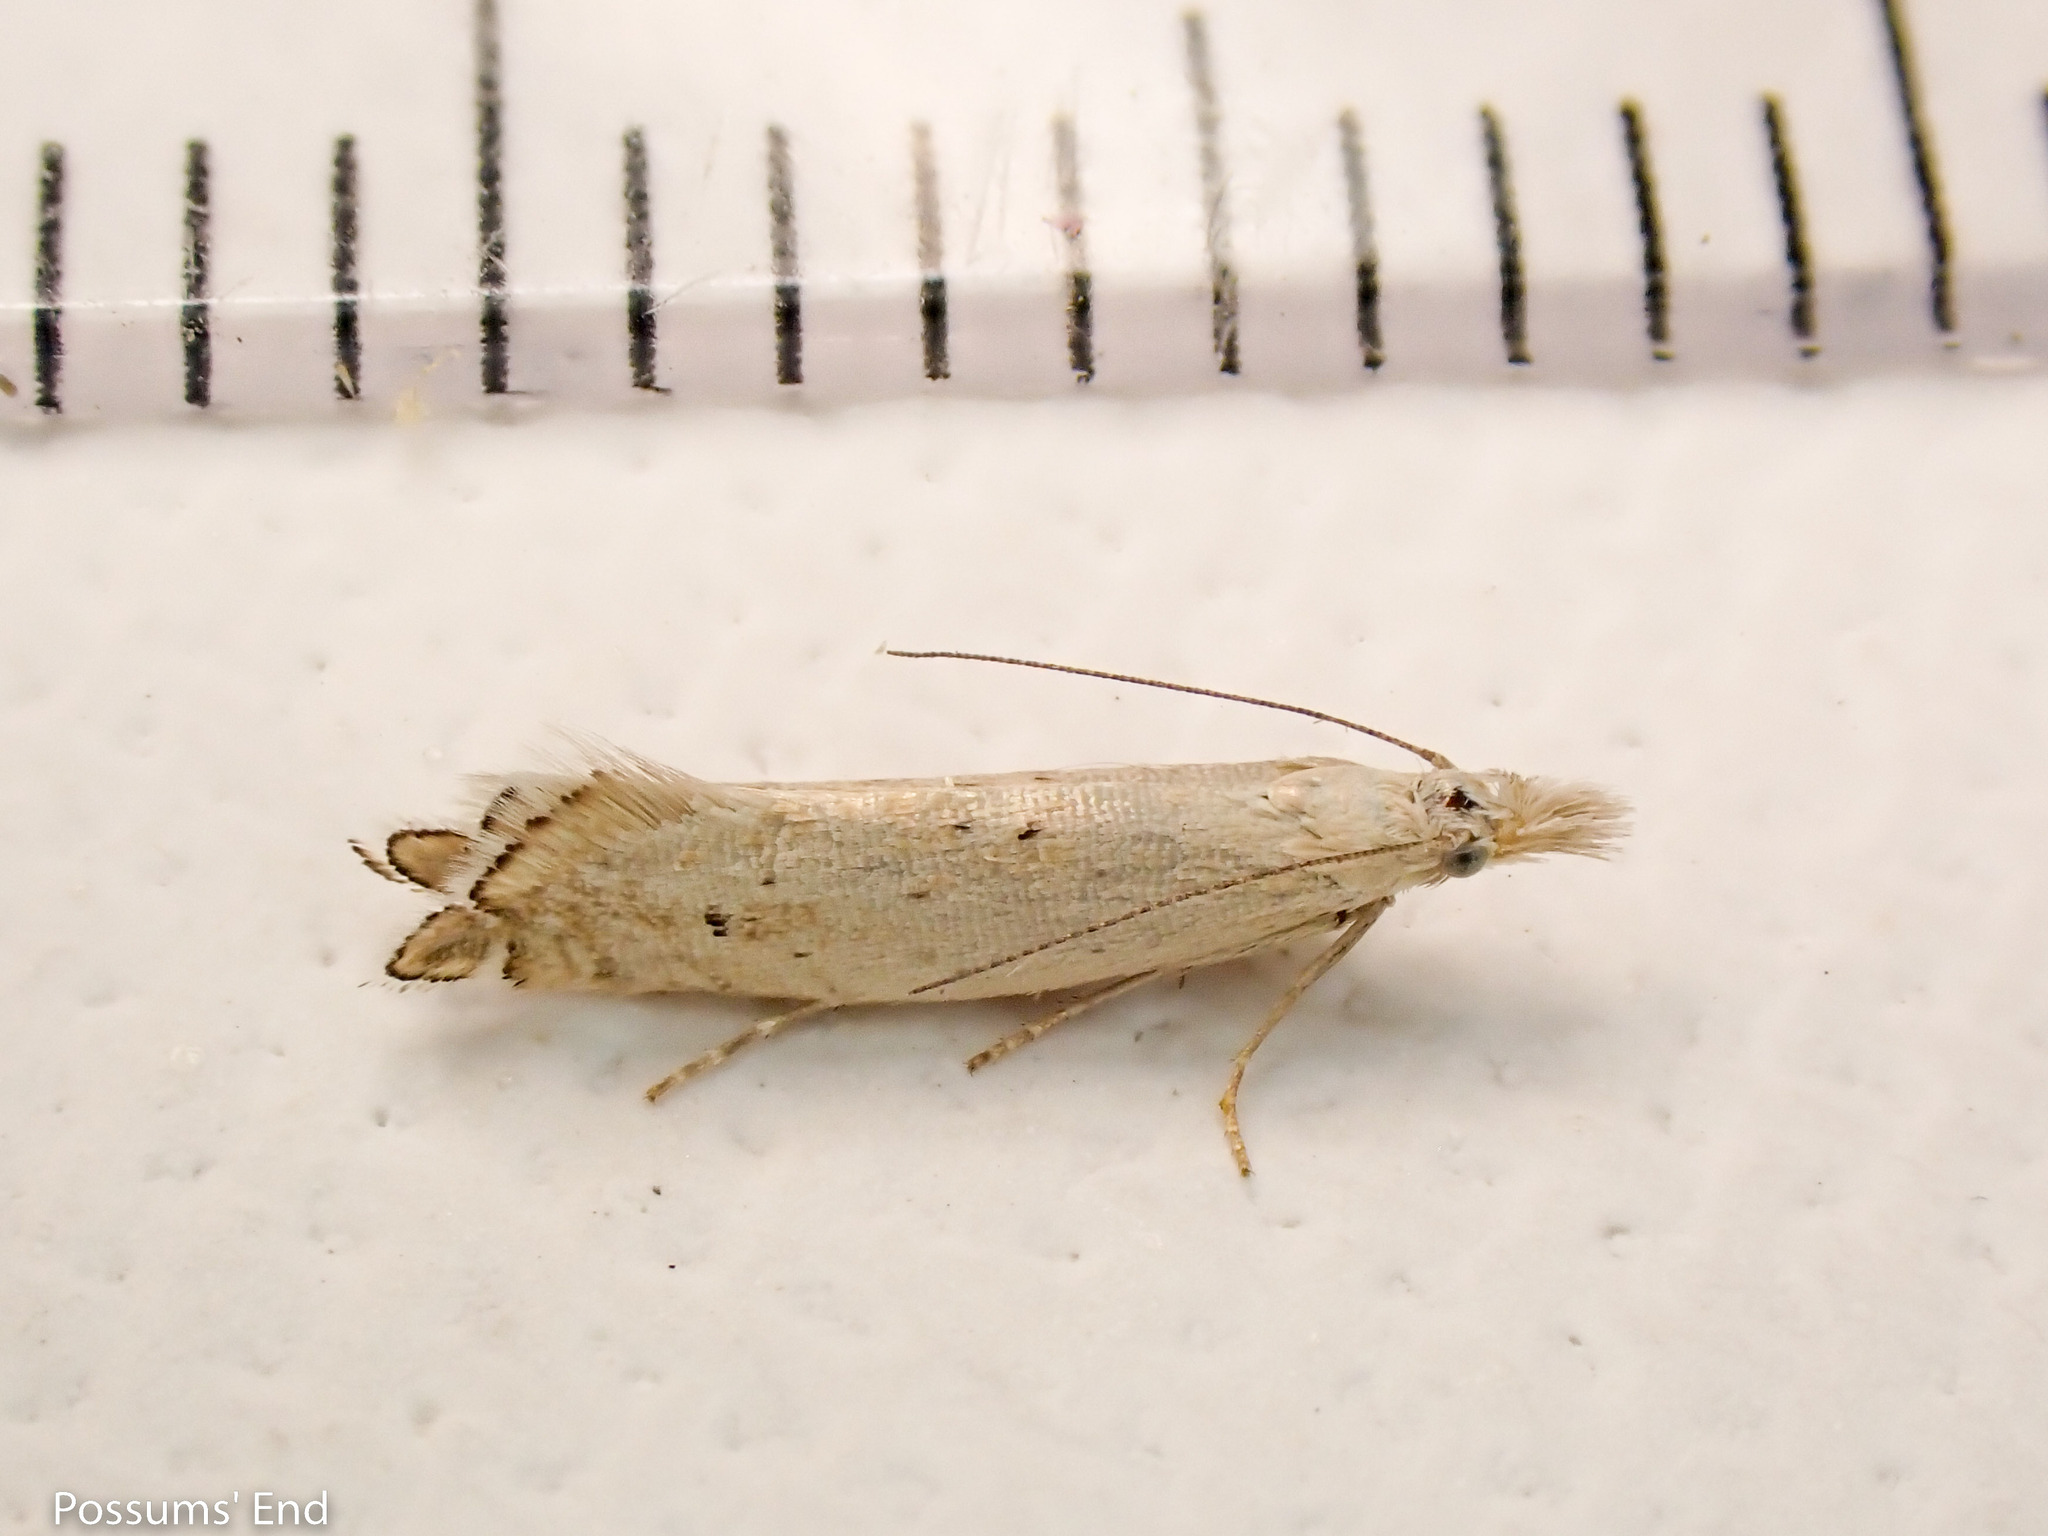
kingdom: Animalia
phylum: Arthropoda
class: Insecta
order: Lepidoptera
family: Glyphipterigidae
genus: Glyphipterix
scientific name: Glyphipterix achlyoessa
